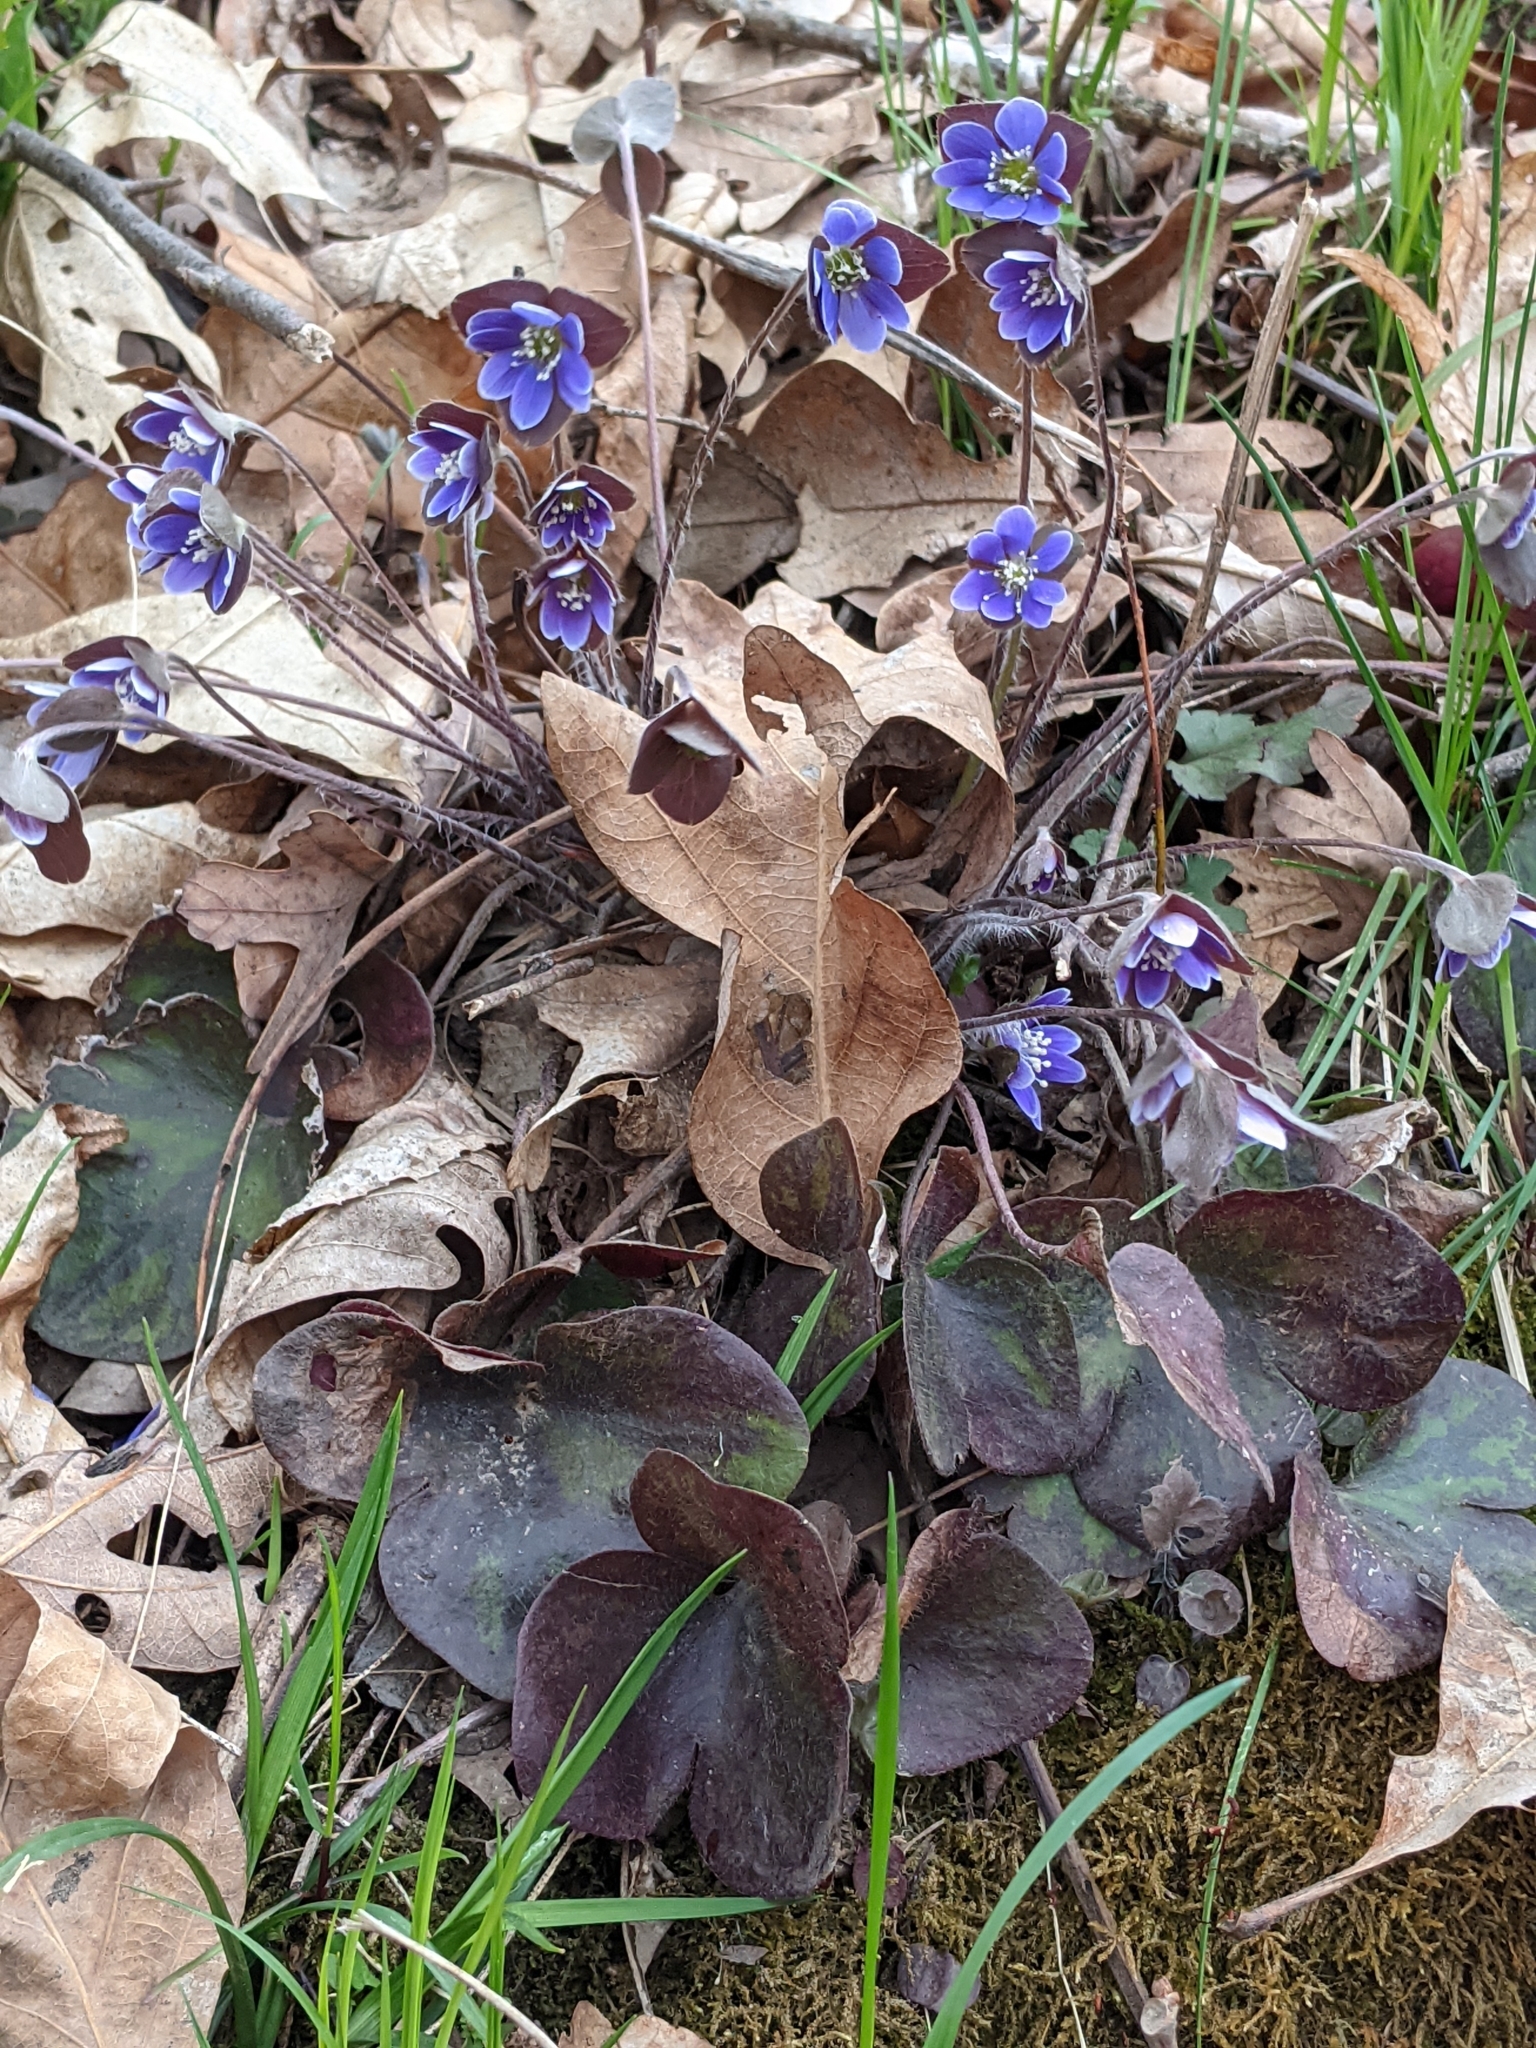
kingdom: Plantae
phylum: Tracheophyta
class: Magnoliopsida
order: Ranunculales
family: Ranunculaceae
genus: Hepatica
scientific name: Hepatica americana
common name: American hepatica
